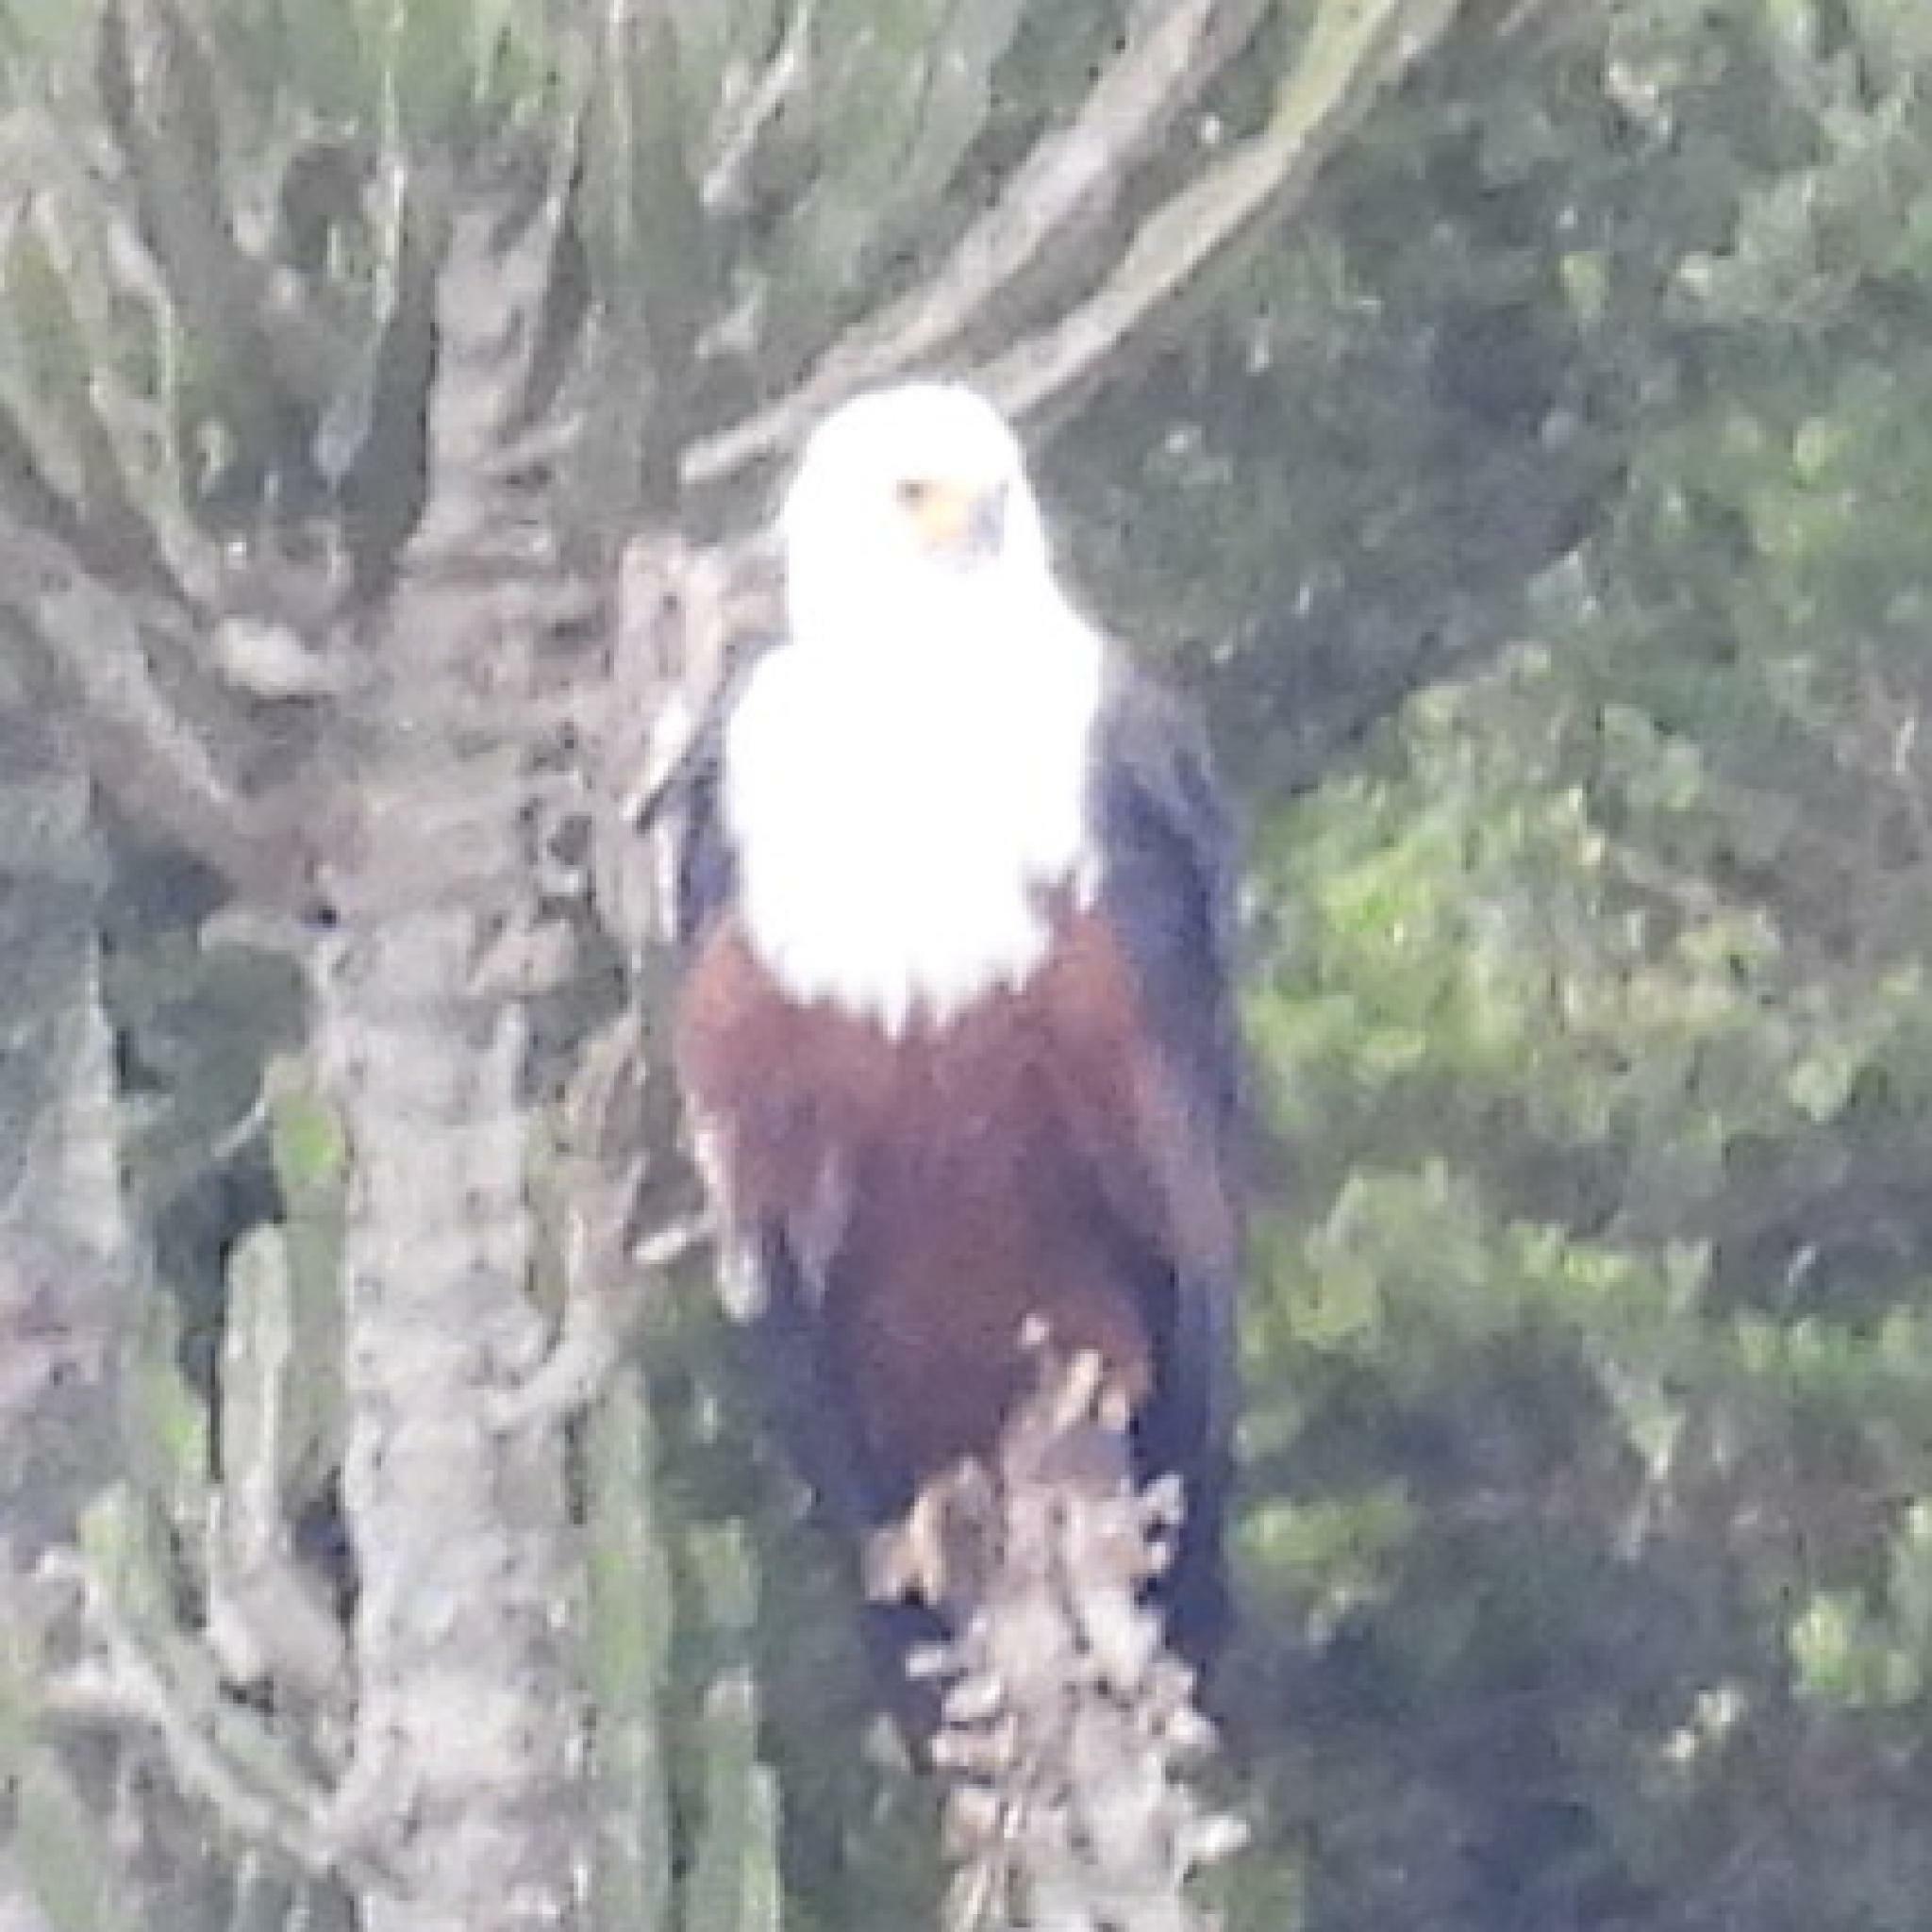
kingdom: Animalia
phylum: Chordata
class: Aves
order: Accipitriformes
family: Accipitridae
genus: Haliaeetus
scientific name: Haliaeetus vocifer
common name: African fish eagle
